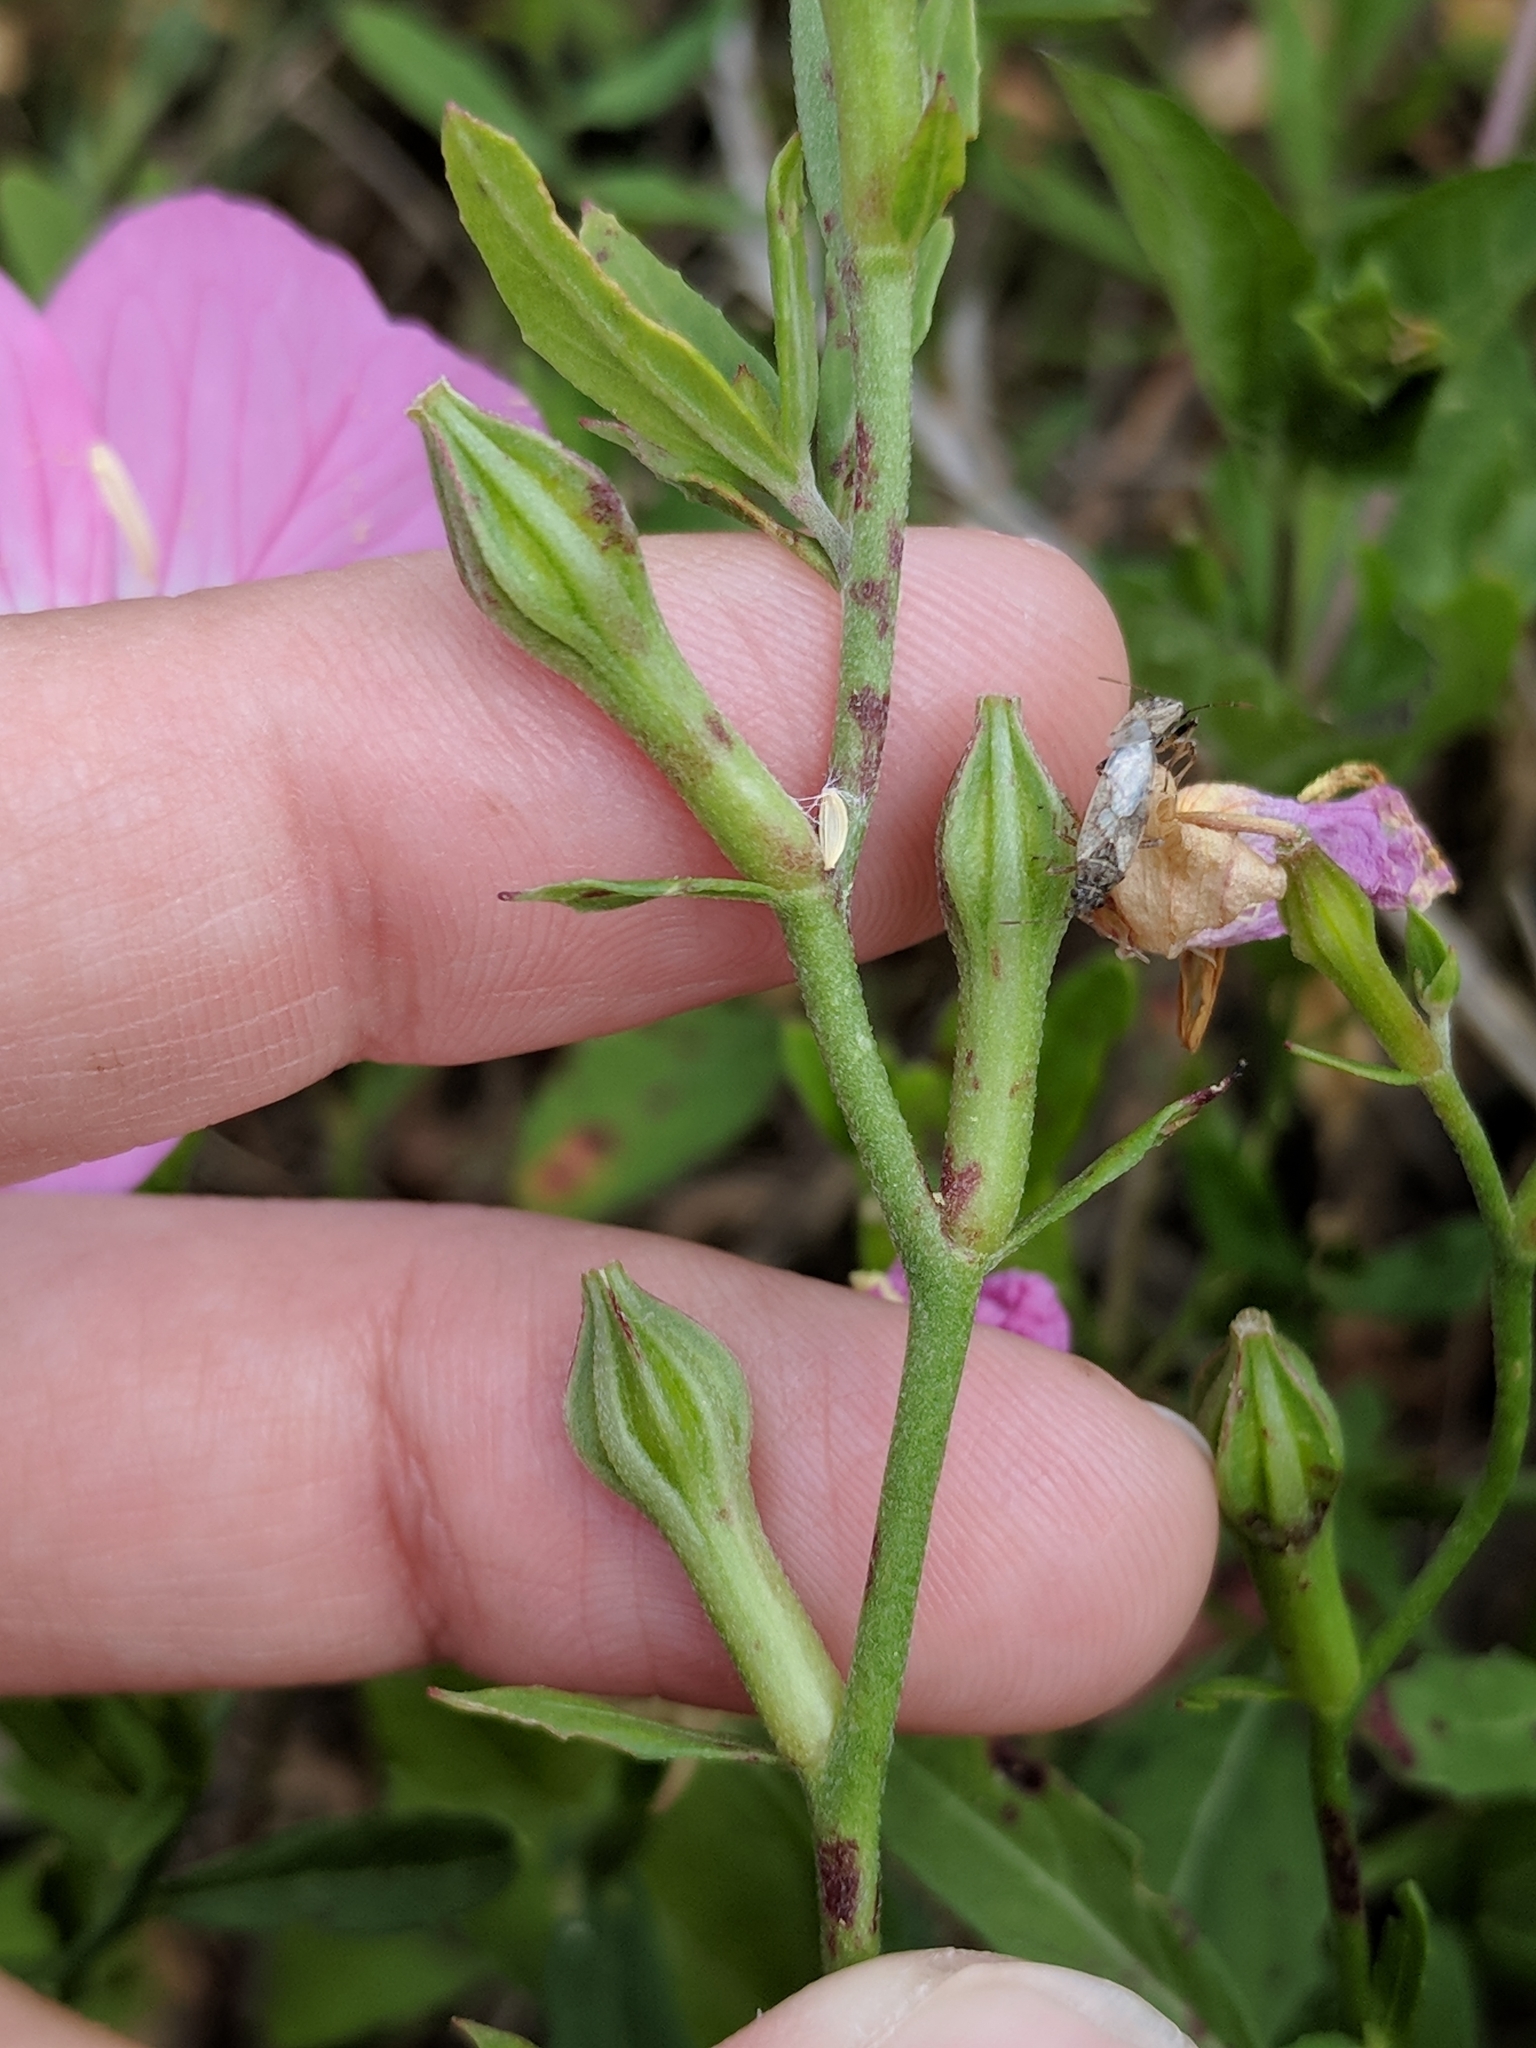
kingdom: Plantae
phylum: Tracheophyta
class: Magnoliopsida
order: Myrtales
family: Onagraceae
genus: Oenothera
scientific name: Oenothera speciosa
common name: White evening-primrose
